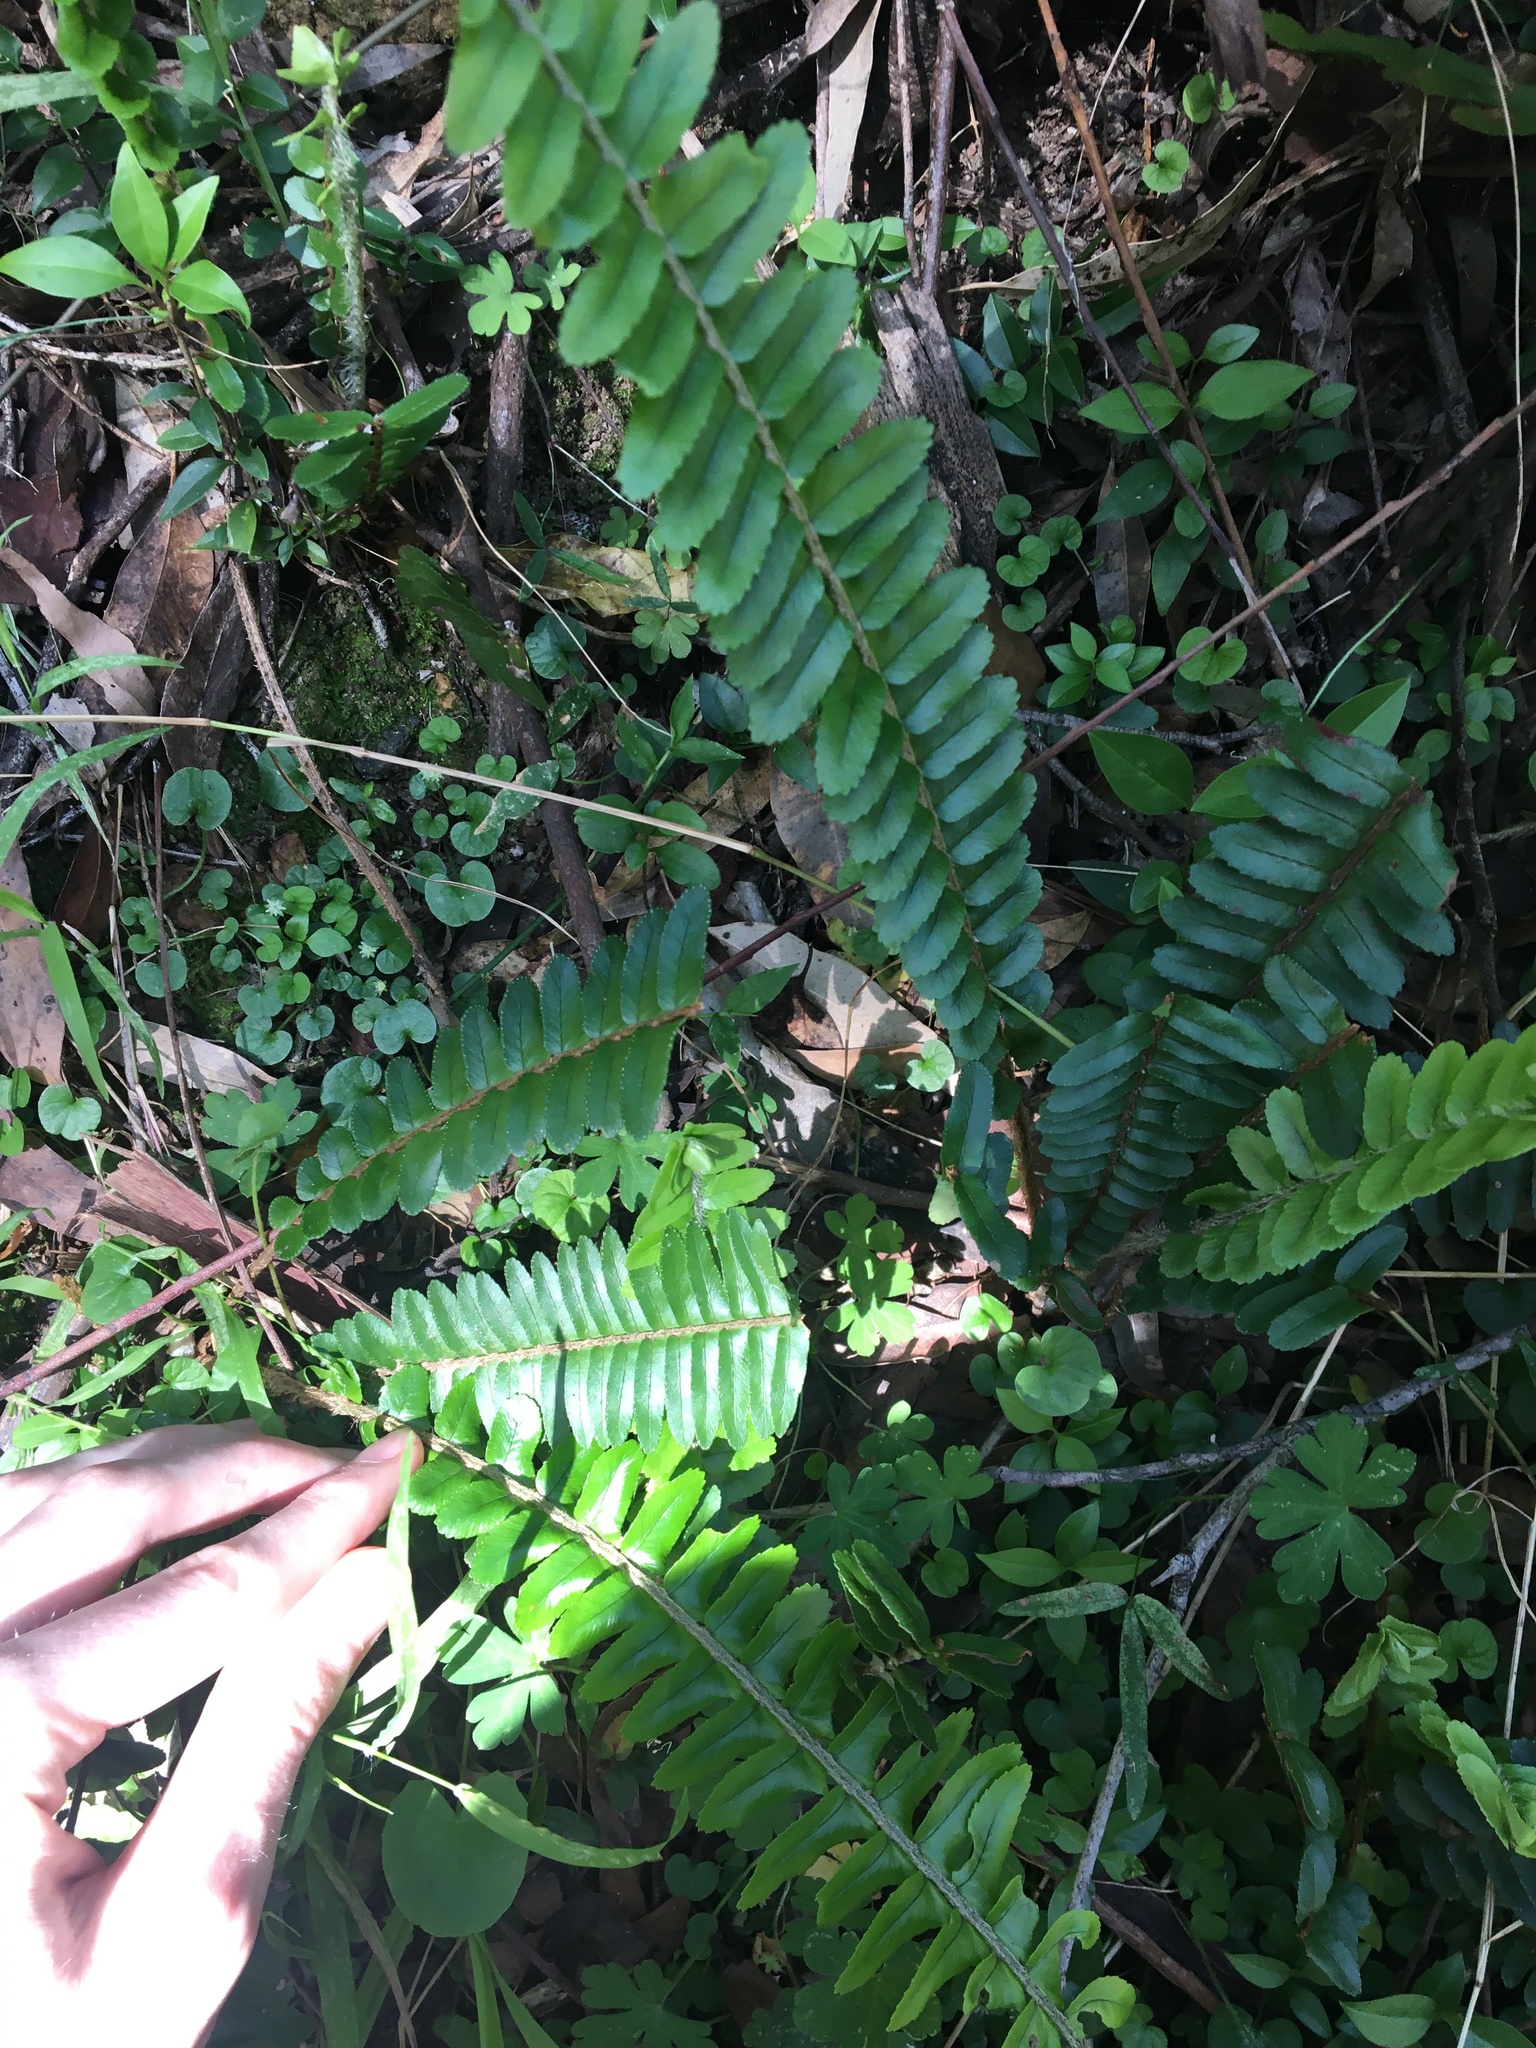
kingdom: Plantae
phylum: Tracheophyta
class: Polypodiopsida
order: Polypodiales
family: Nephrolepidaceae
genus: Nephrolepis
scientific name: Nephrolepis cordifolia
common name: Narrow swordfern
